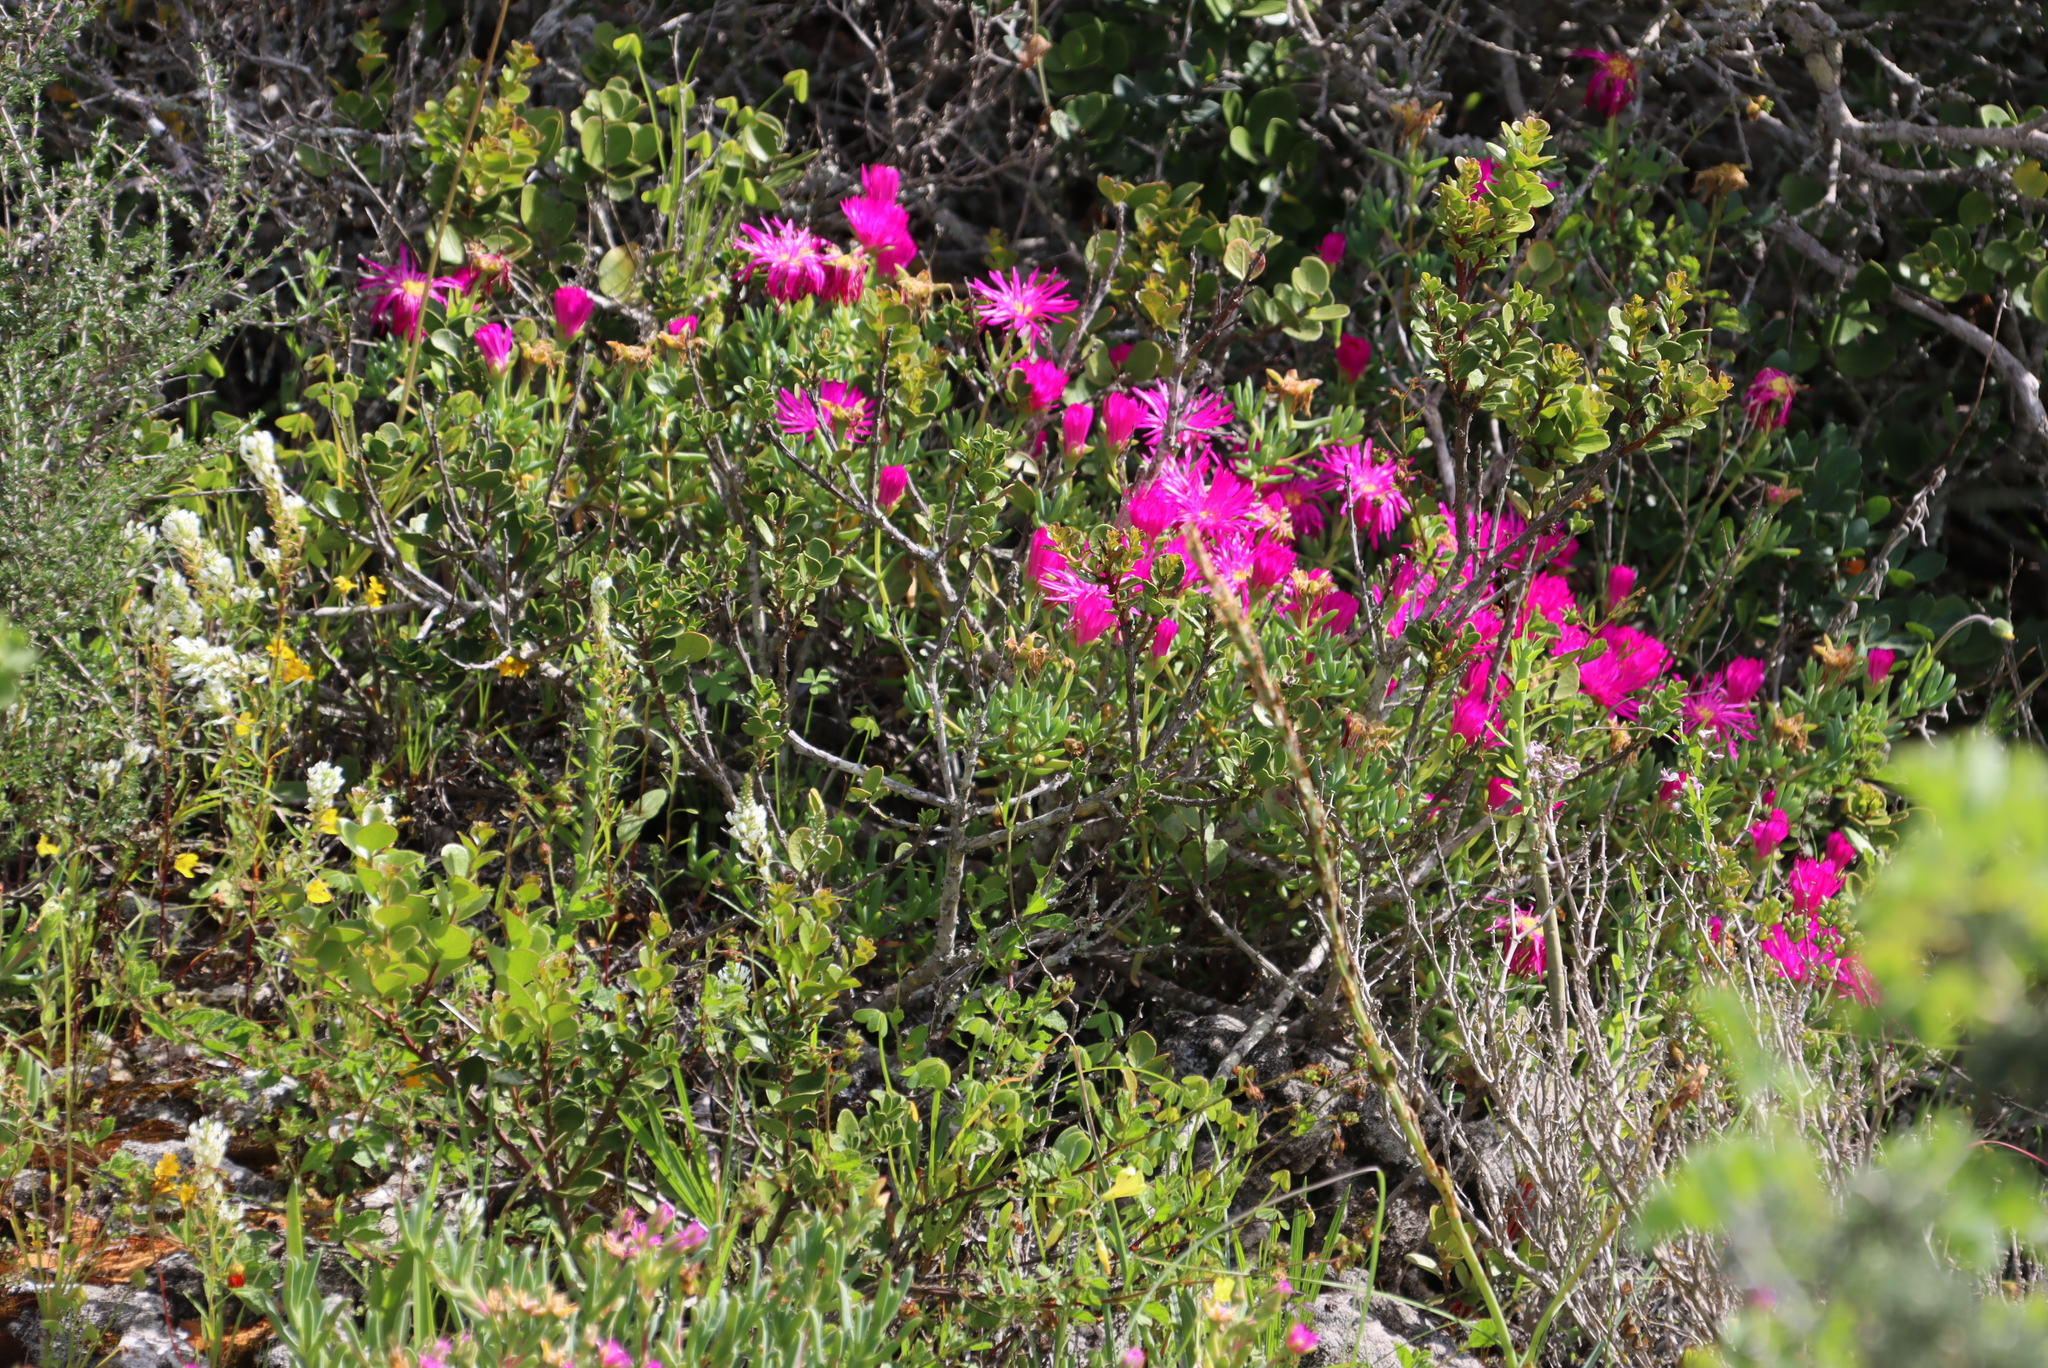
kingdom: Plantae
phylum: Tracheophyta
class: Magnoliopsida
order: Caryophyllales
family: Aizoaceae
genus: Lampranthus
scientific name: Lampranthus stipulaceus
